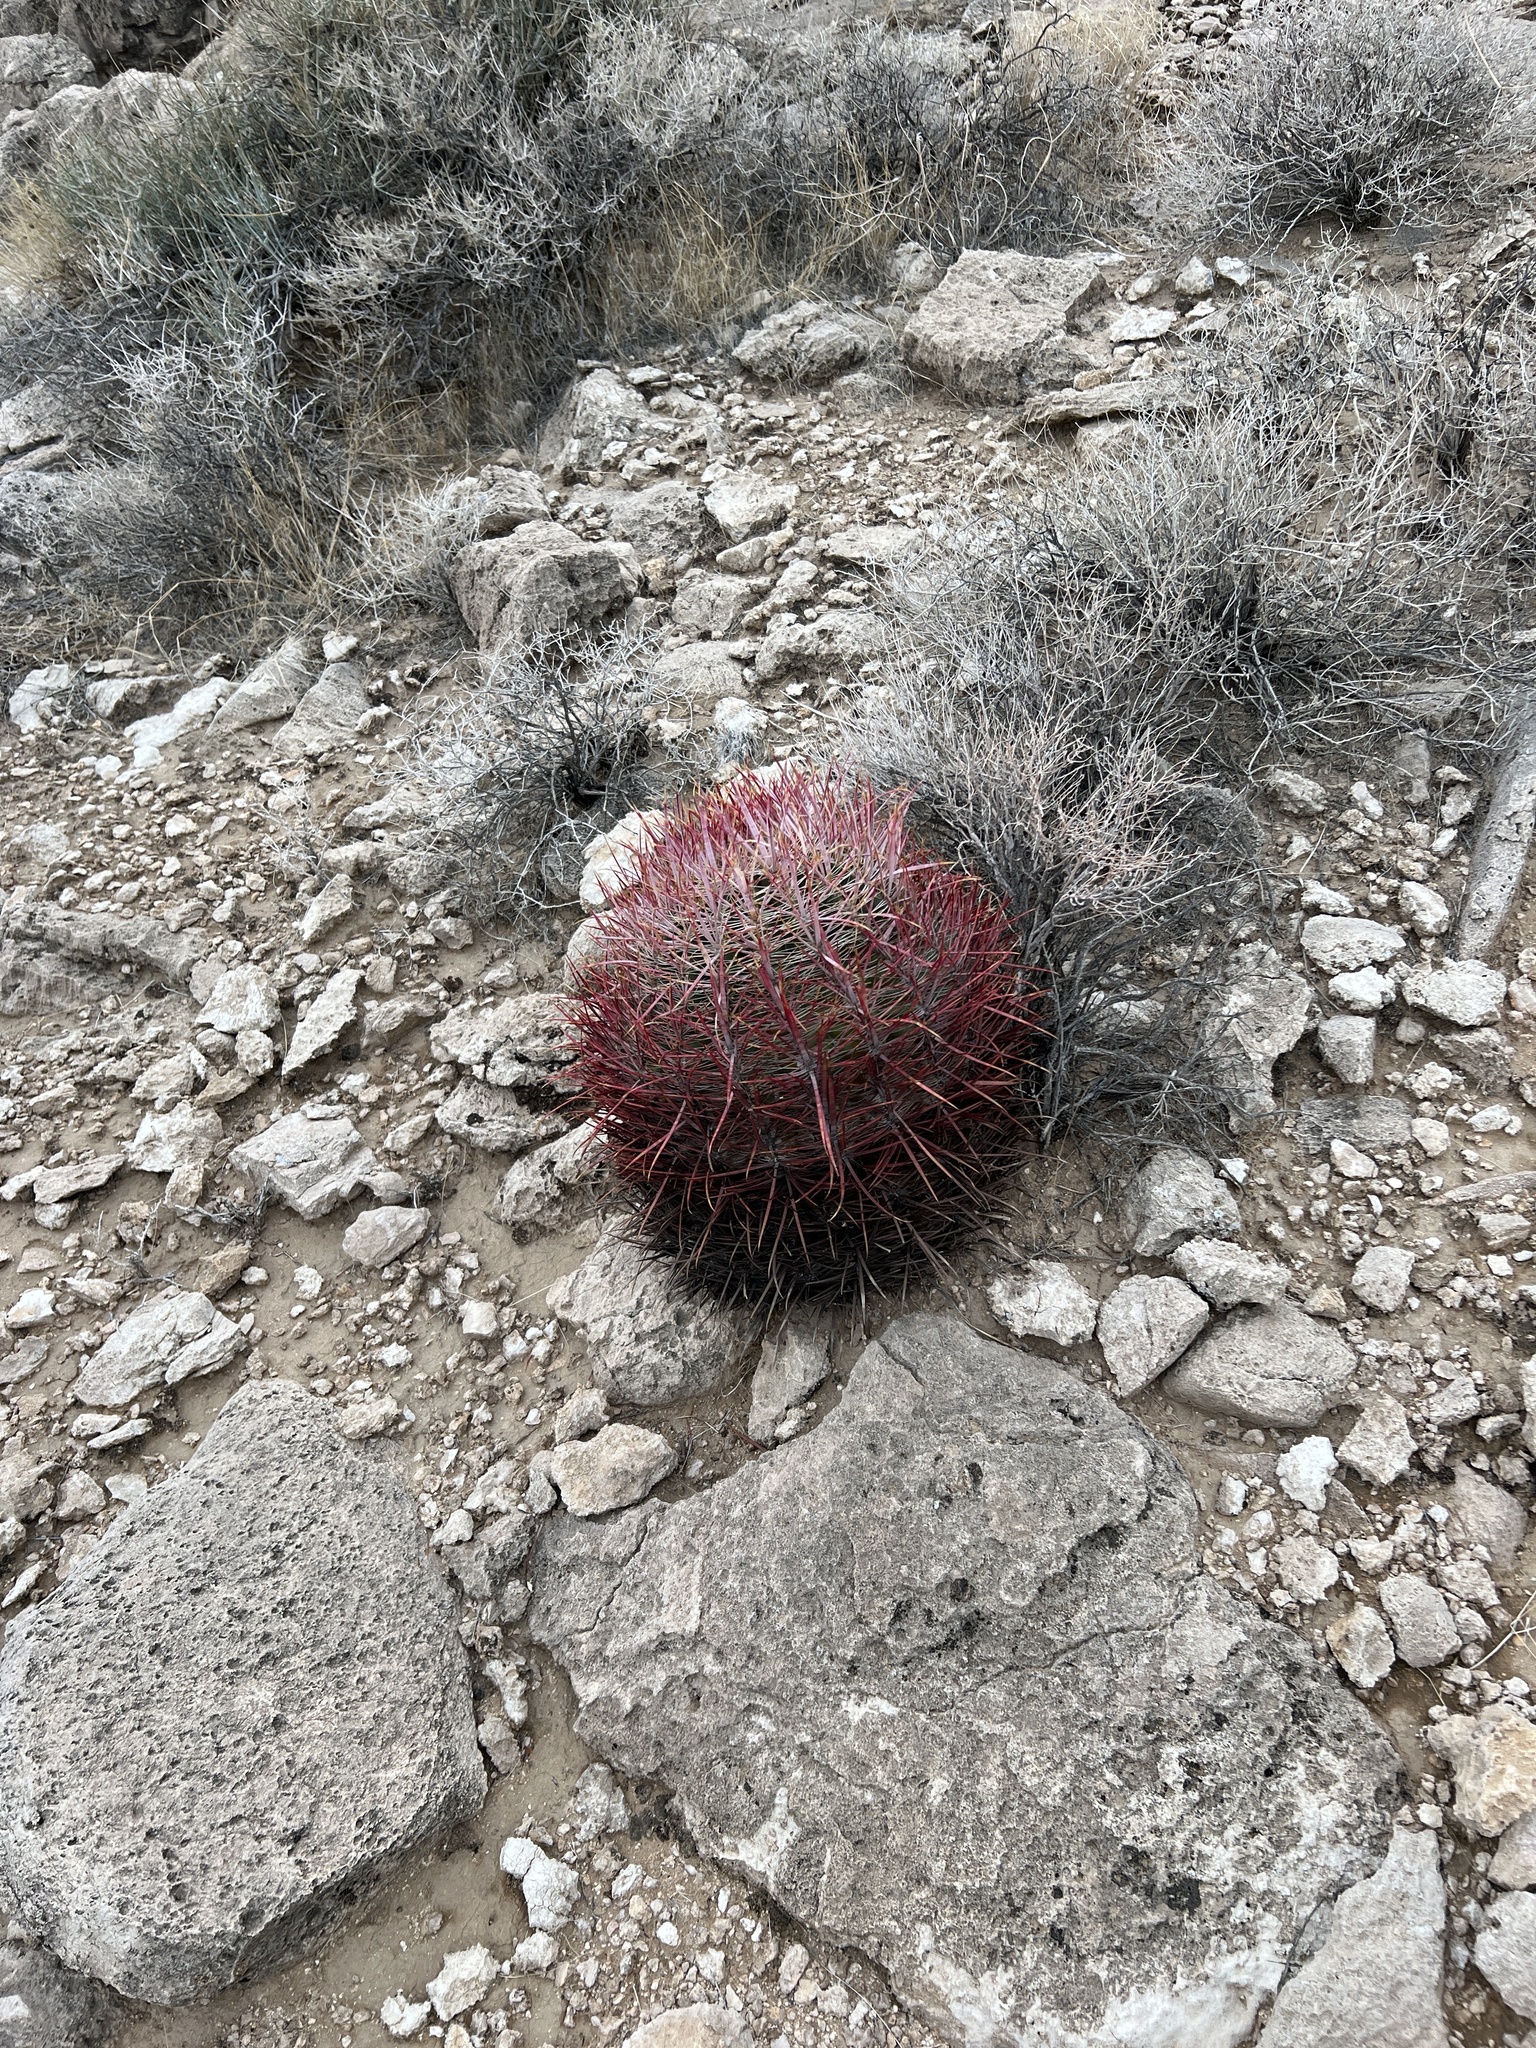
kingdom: Plantae
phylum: Tracheophyta
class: Magnoliopsida
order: Caryophyllales
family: Cactaceae
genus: Ferocactus
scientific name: Ferocactus cylindraceus
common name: California barrel cactus
